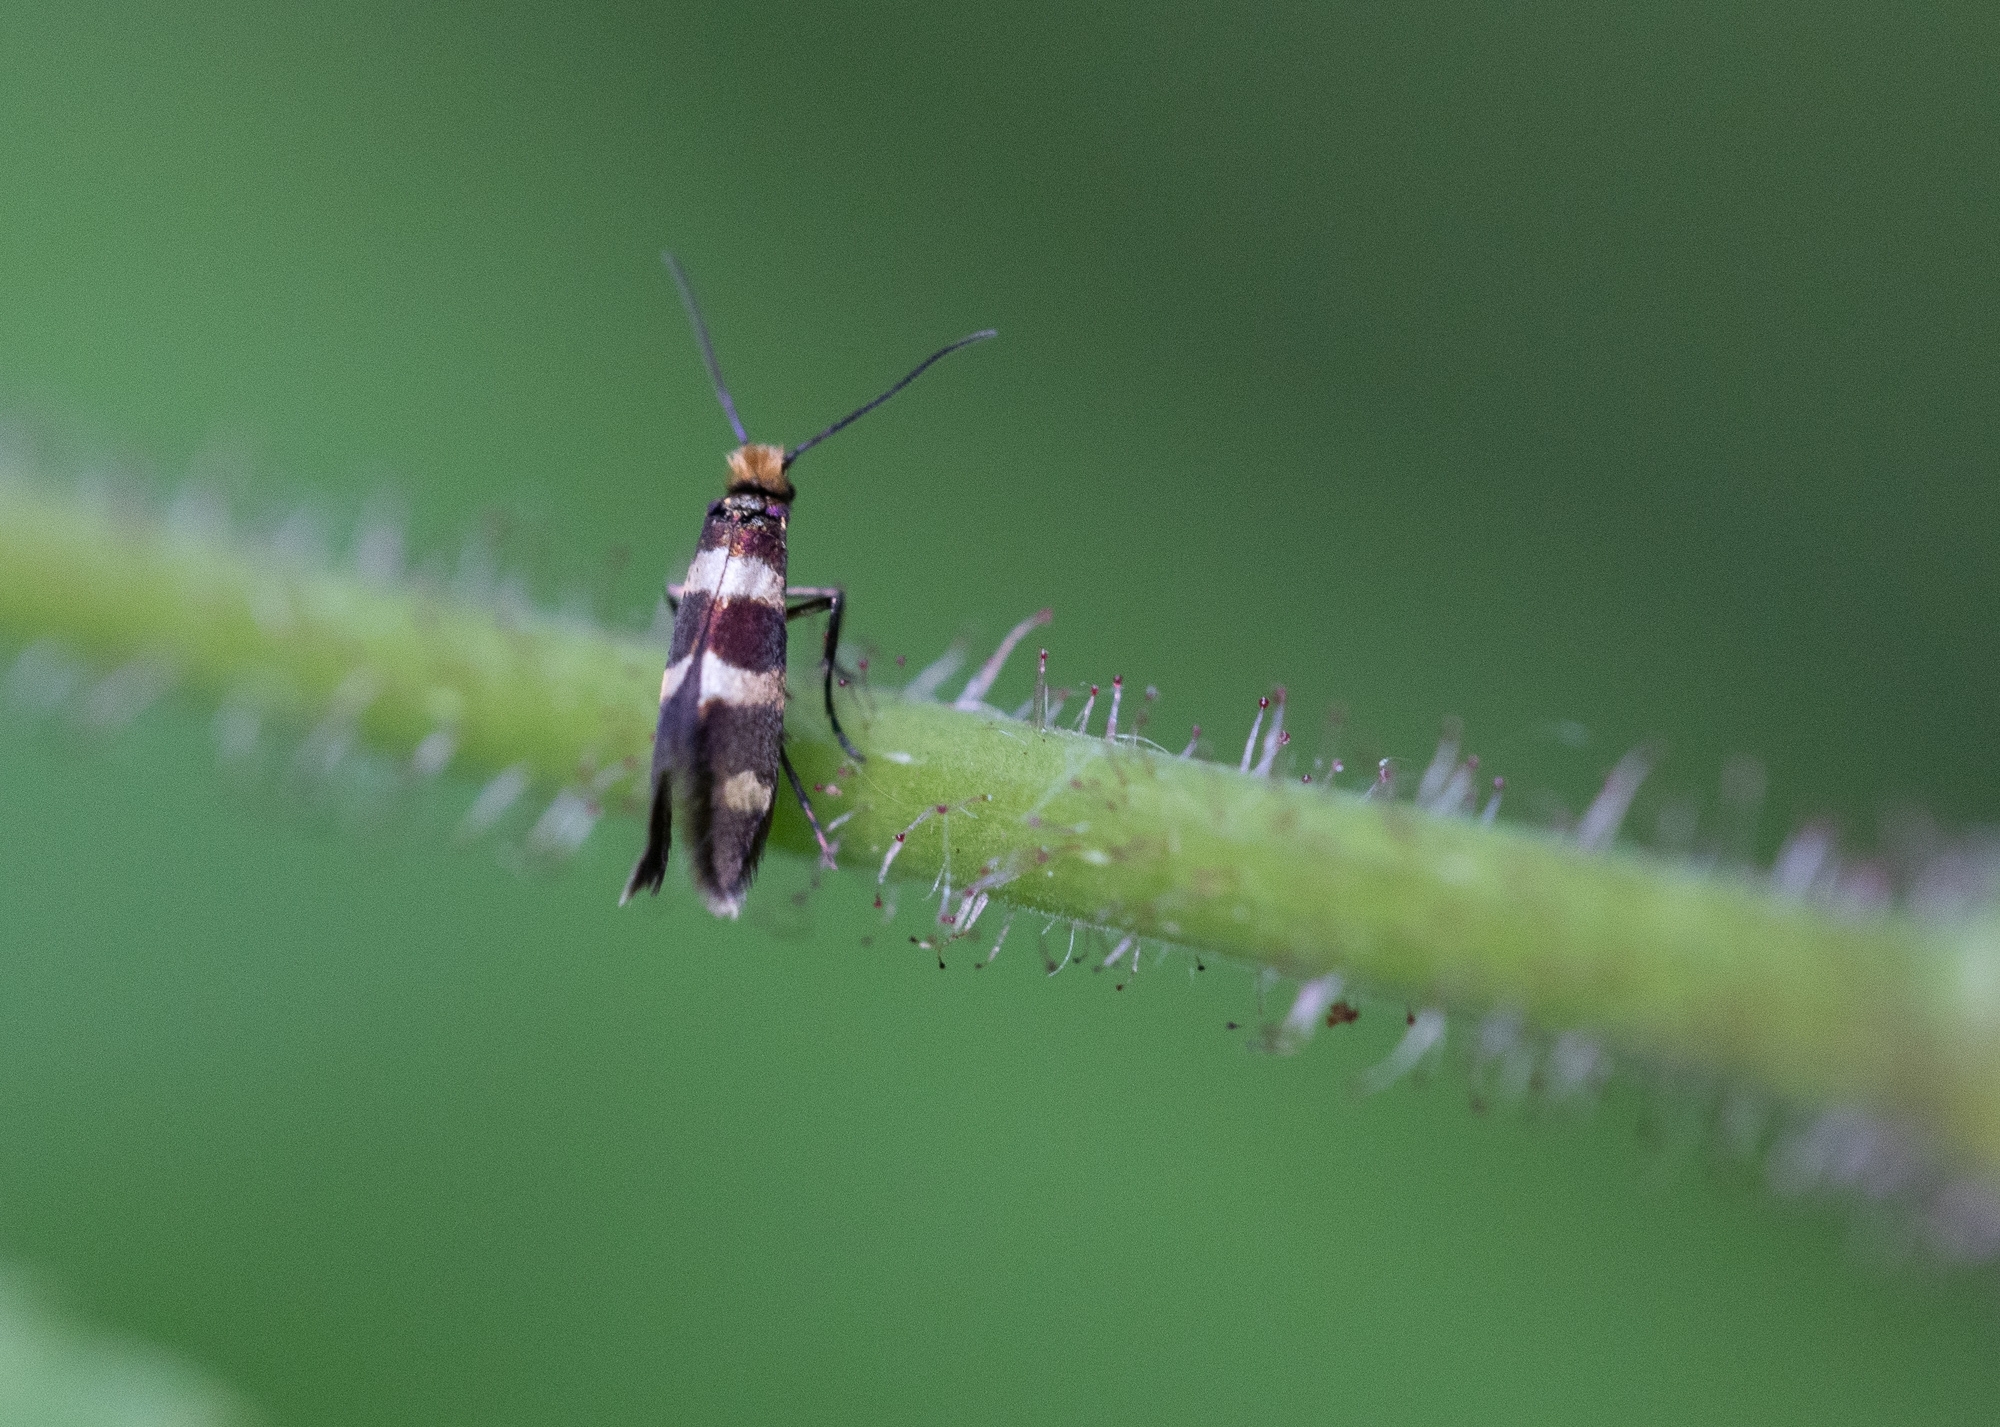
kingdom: Animalia
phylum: Arthropoda
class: Insecta
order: Lepidoptera
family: Micropterigidae
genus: Micropterix
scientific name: Micropterix aureatella
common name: Yellow-barred gold
